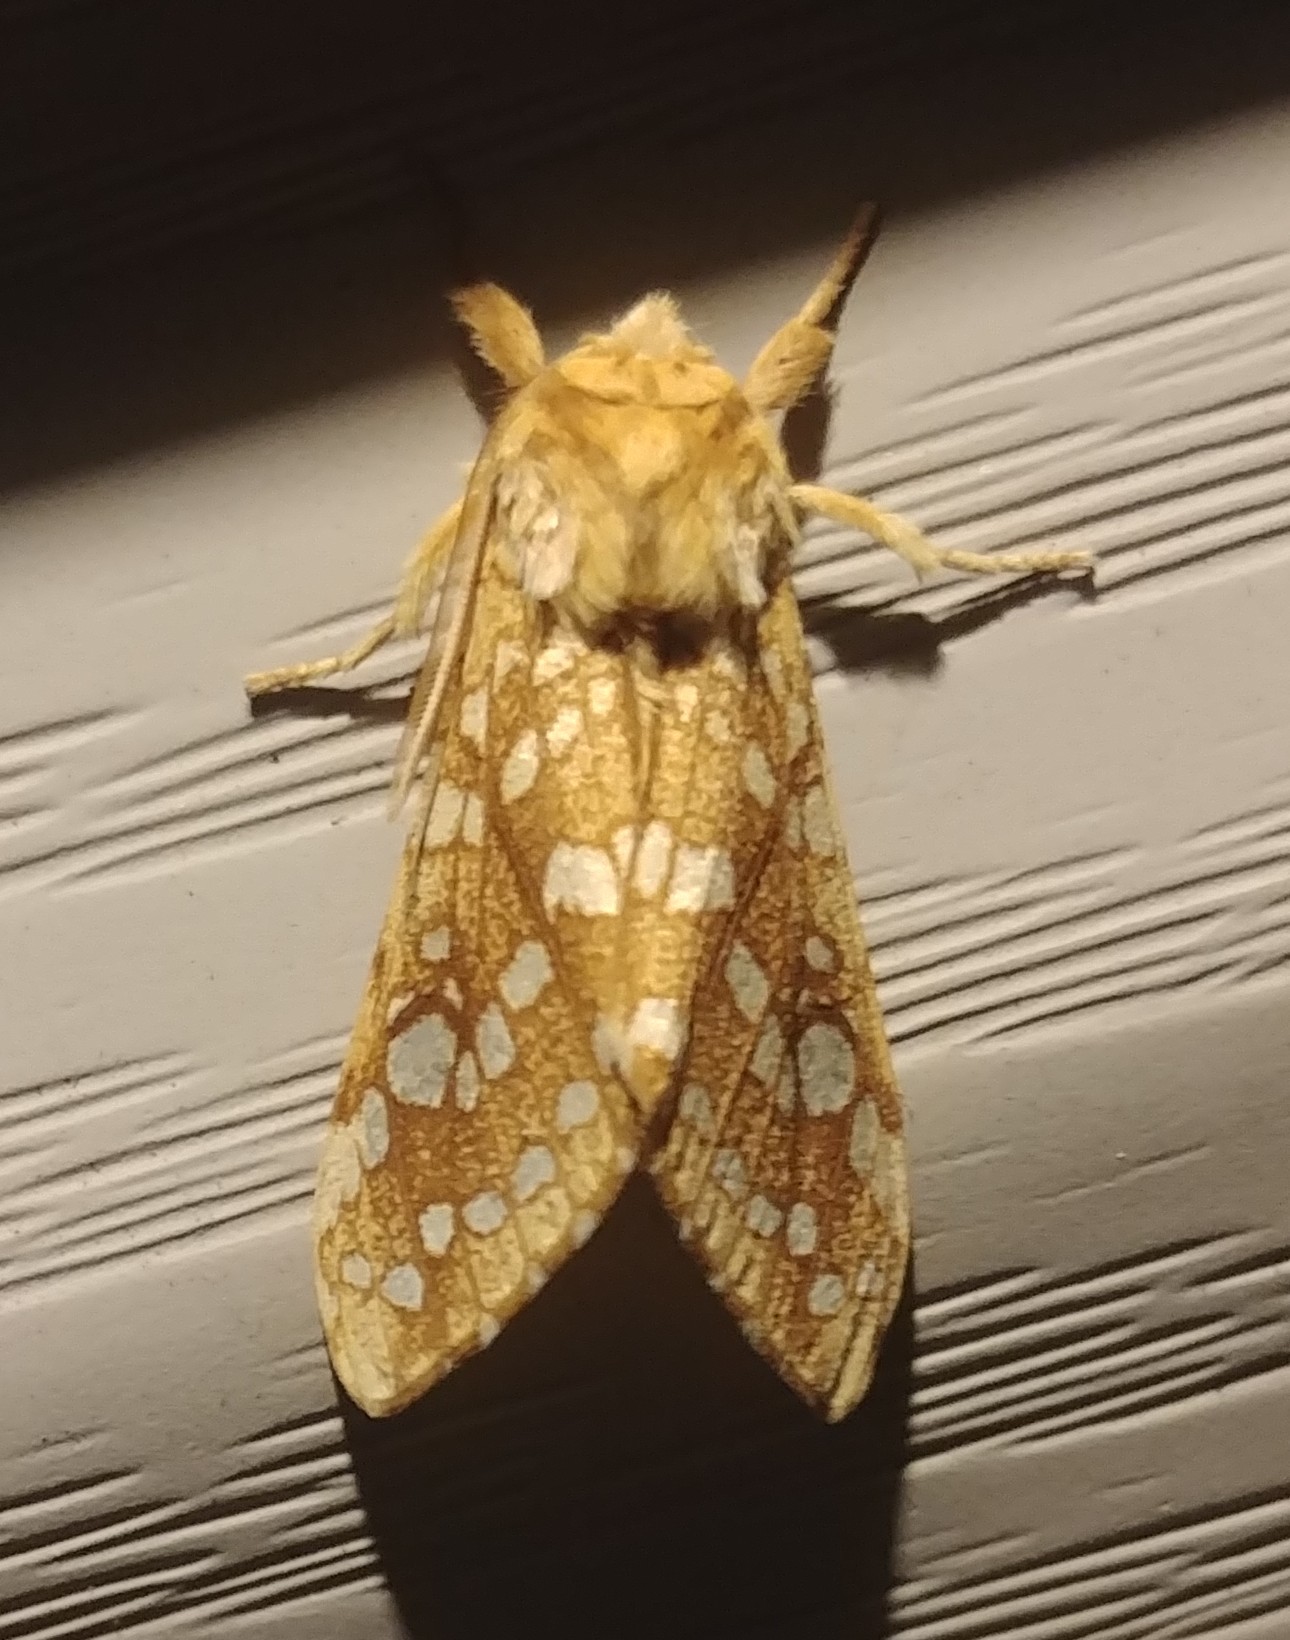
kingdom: Animalia
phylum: Arthropoda
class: Insecta
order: Lepidoptera
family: Erebidae
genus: Lophocampa
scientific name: Lophocampa caryae
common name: Hickory tussock moth
